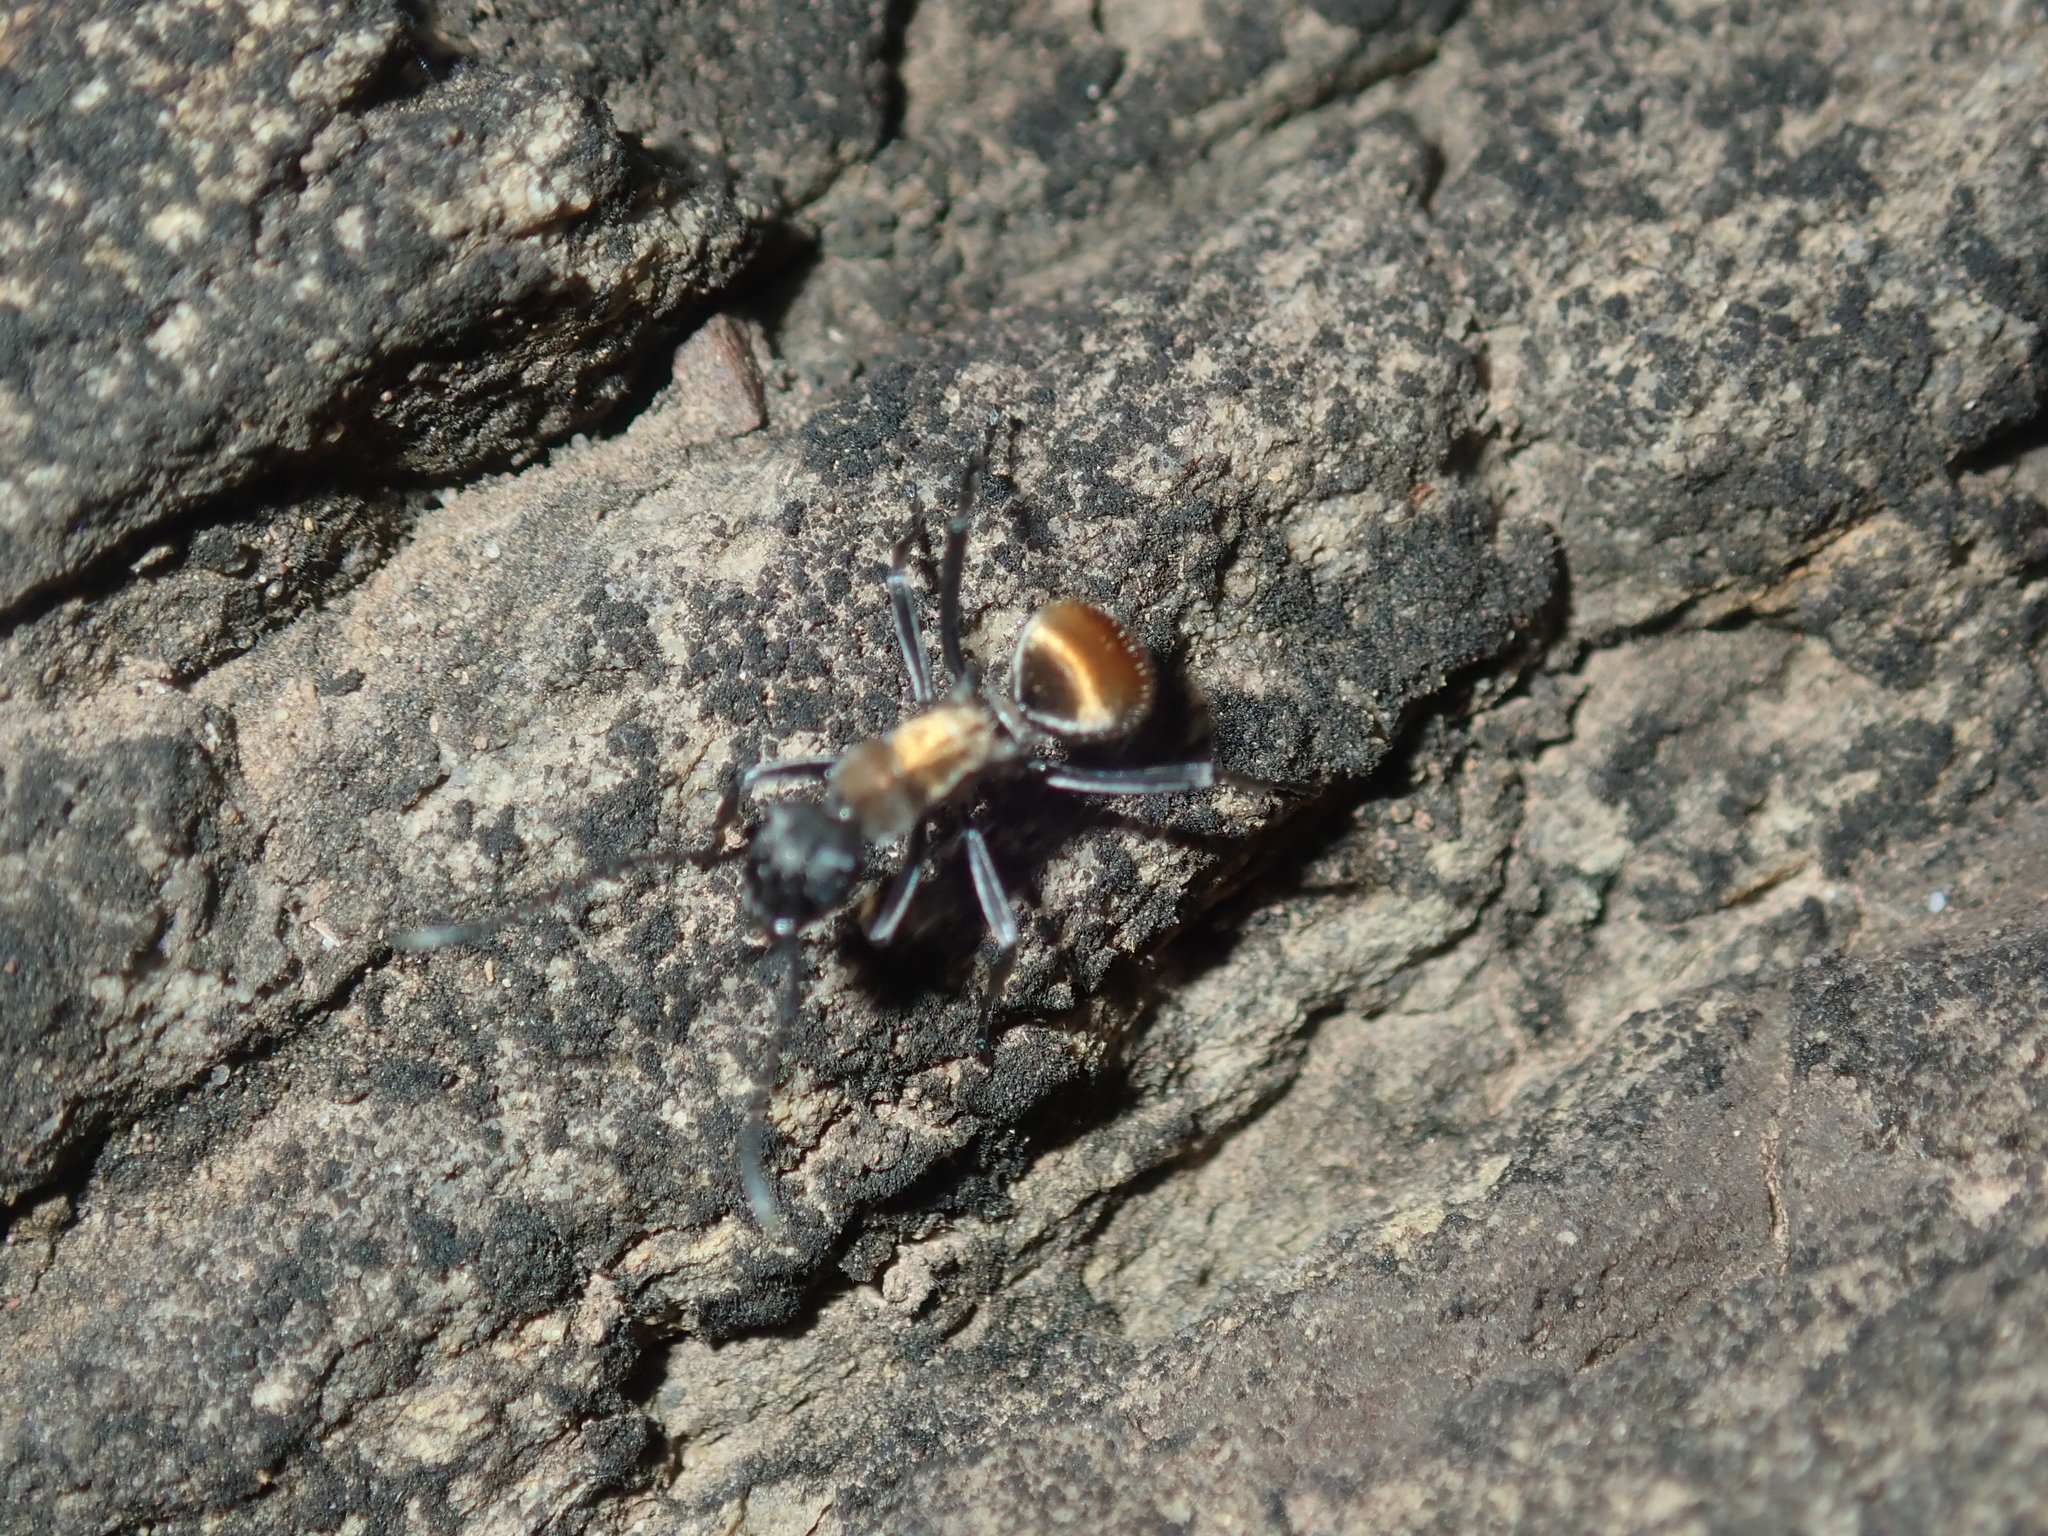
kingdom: Animalia
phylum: Arthropoda
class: Insecta
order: Hymenoptera
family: Formicidae
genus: Polyrhachis
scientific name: Polyrhachis ammon
